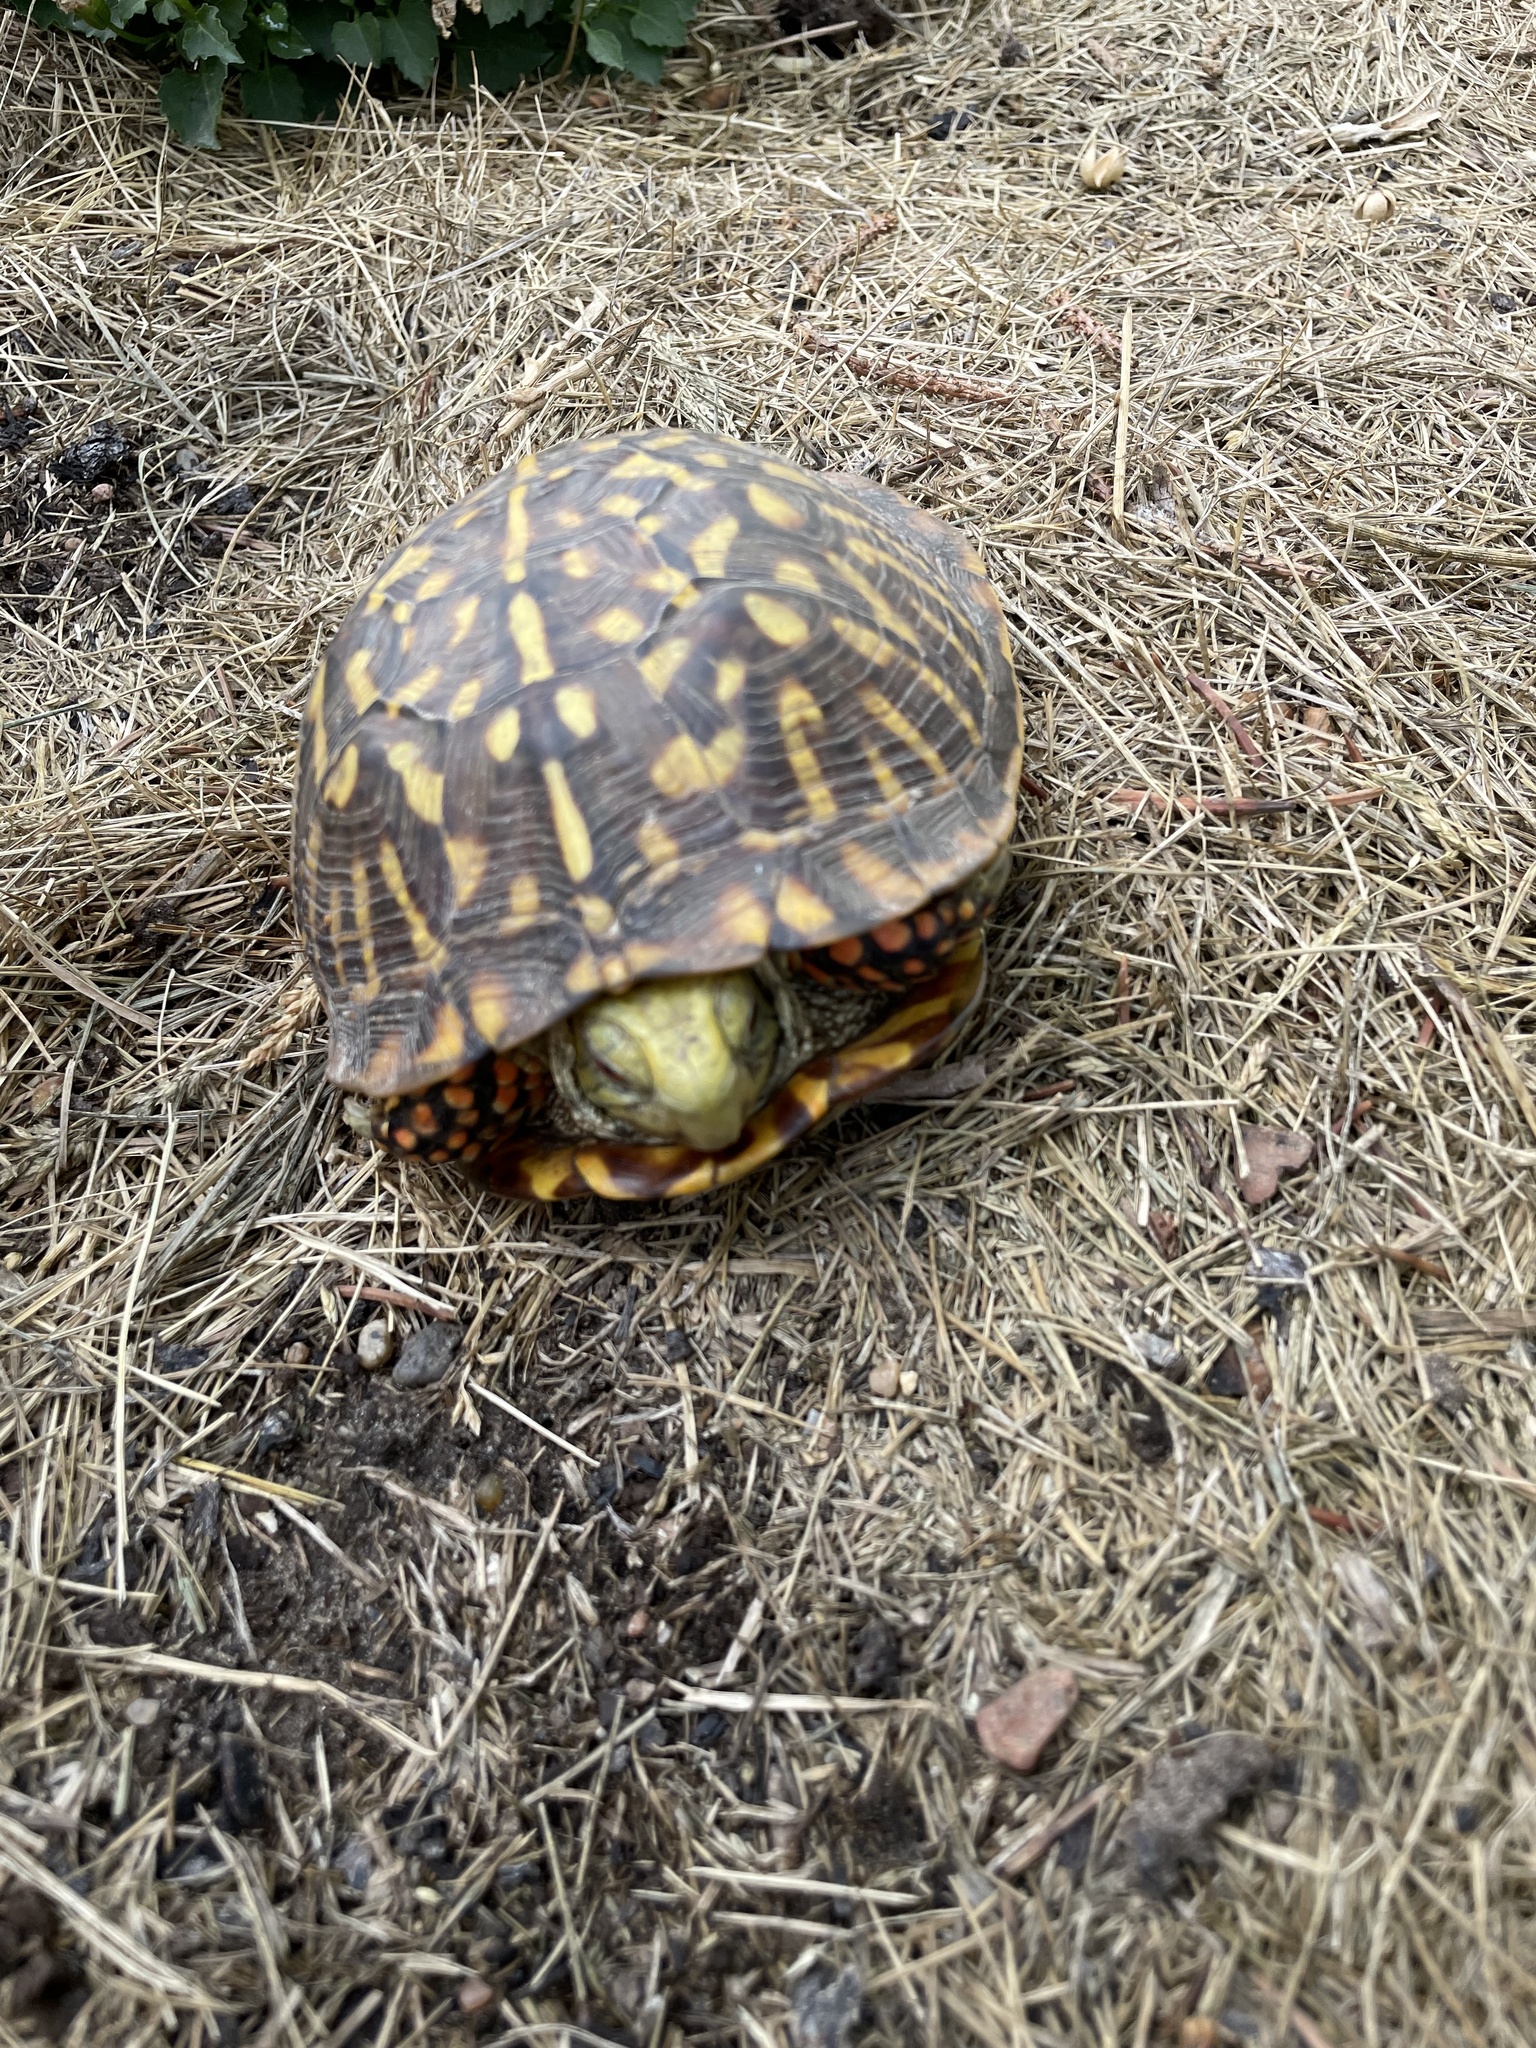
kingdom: Animalia
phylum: Chordata
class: Testudines
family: Emydidae
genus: Terrapene
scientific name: Terrapene ornata
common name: Western box turtle
